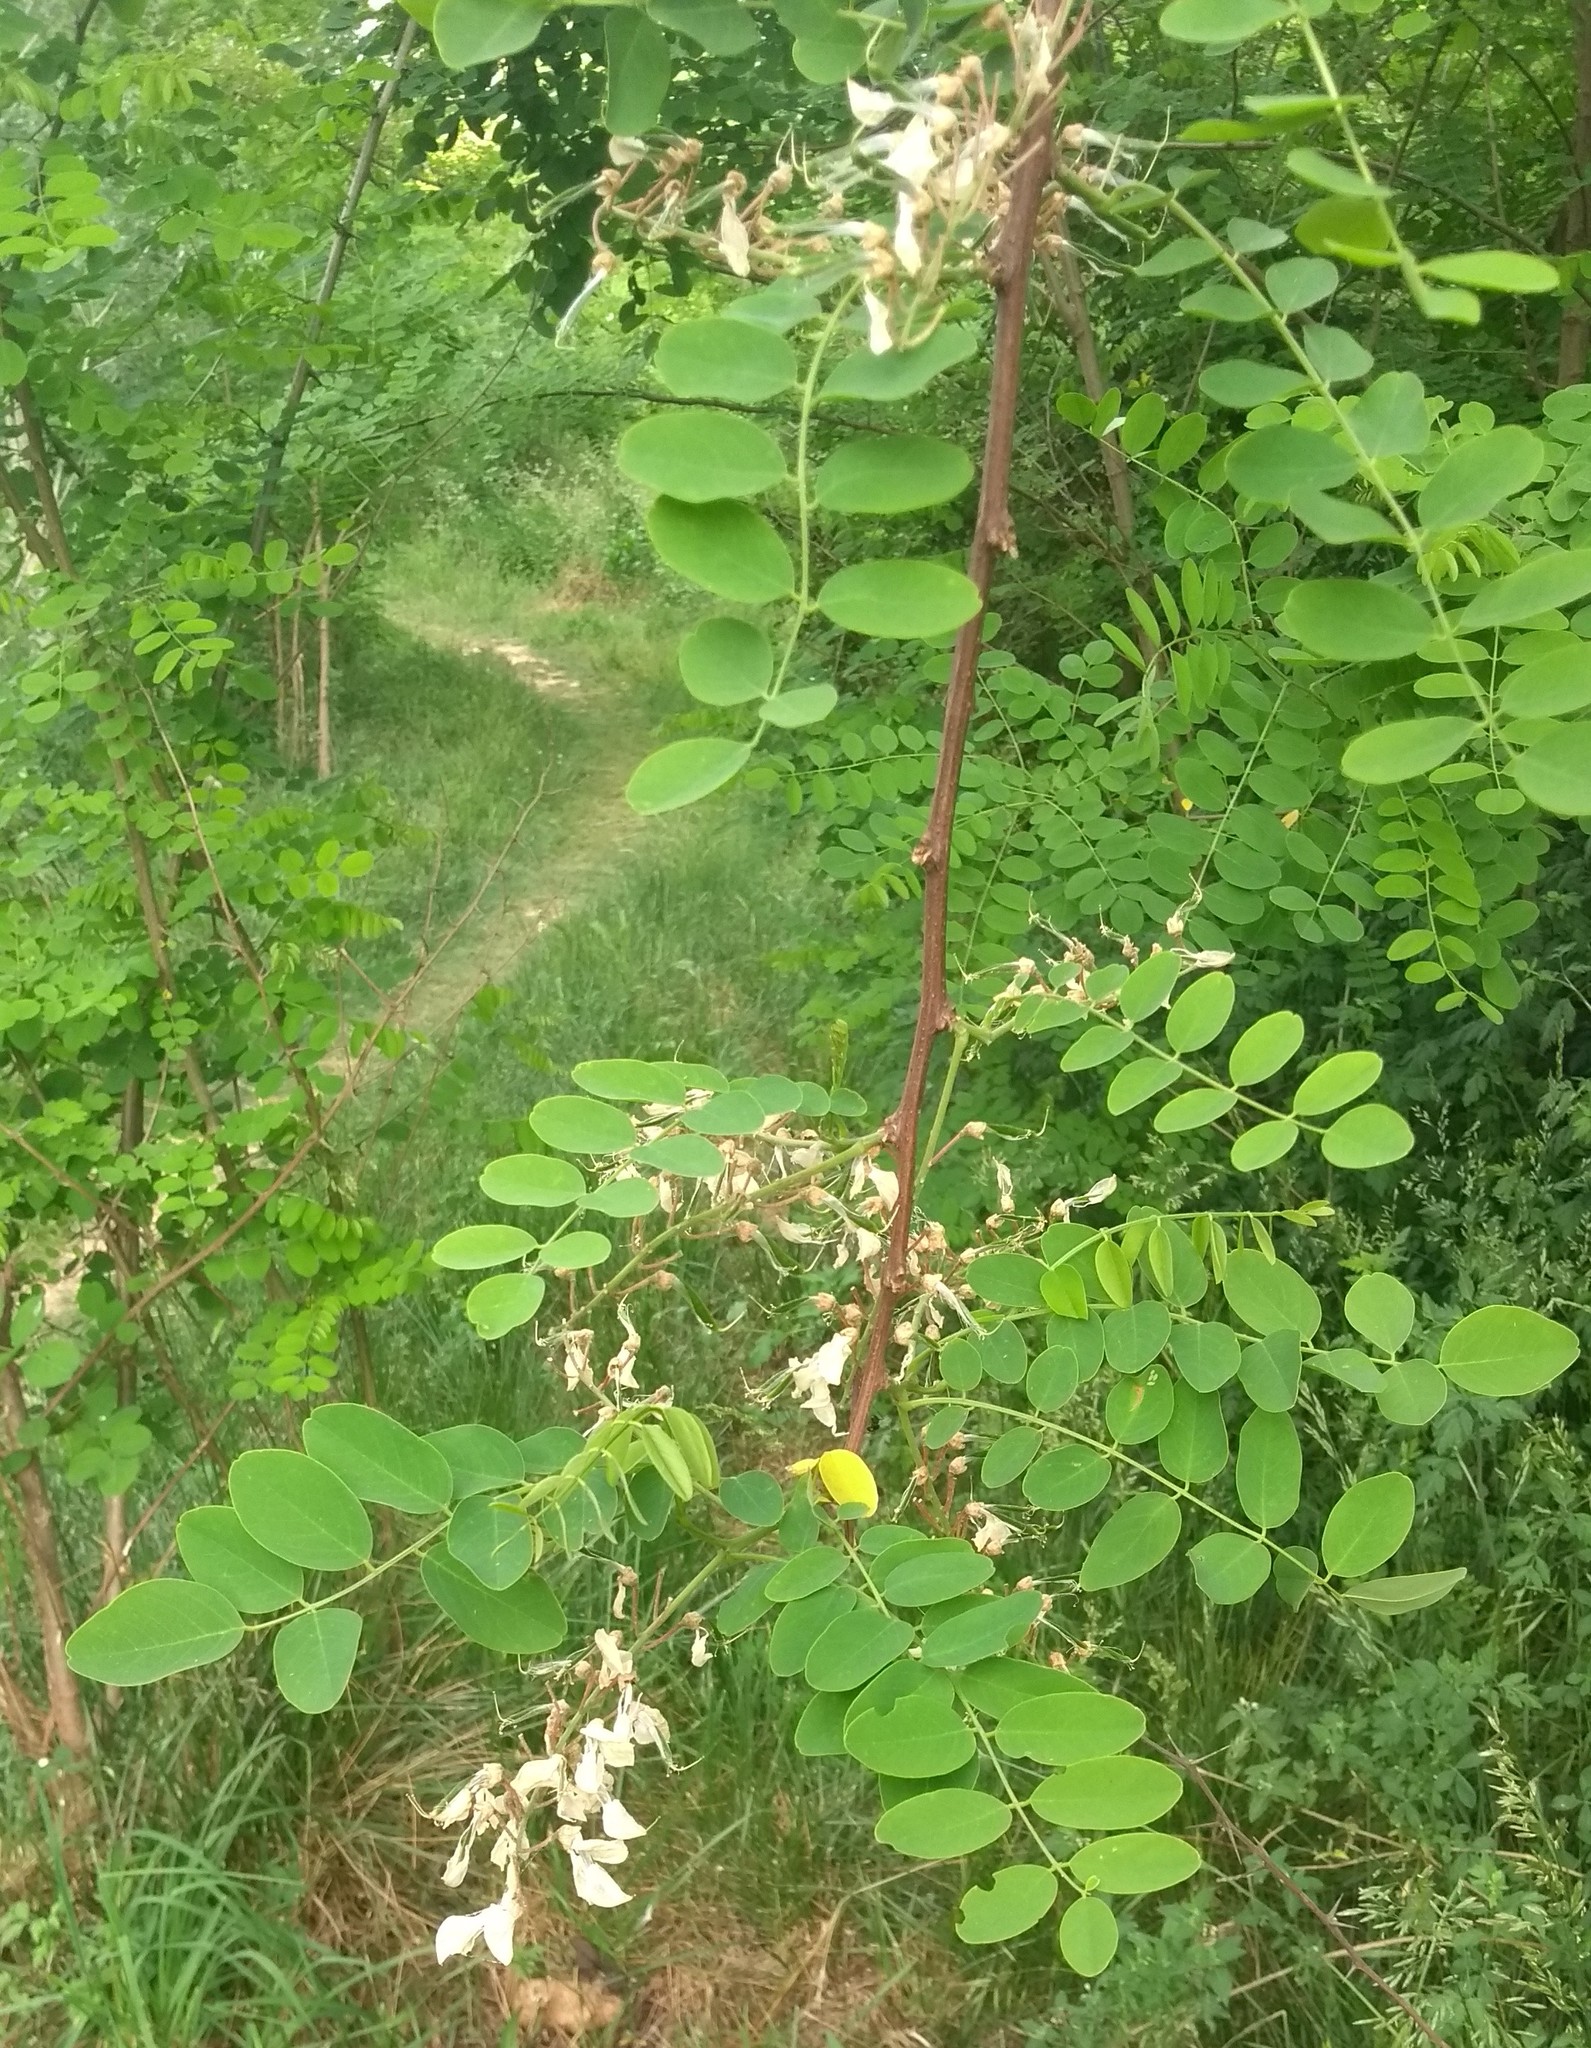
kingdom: Plantae
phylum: Tracheophyta
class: Magnoliopsida
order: Fabales
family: Fabaceae
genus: Robinia
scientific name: Robinia pseudoacacia
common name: Black locust
